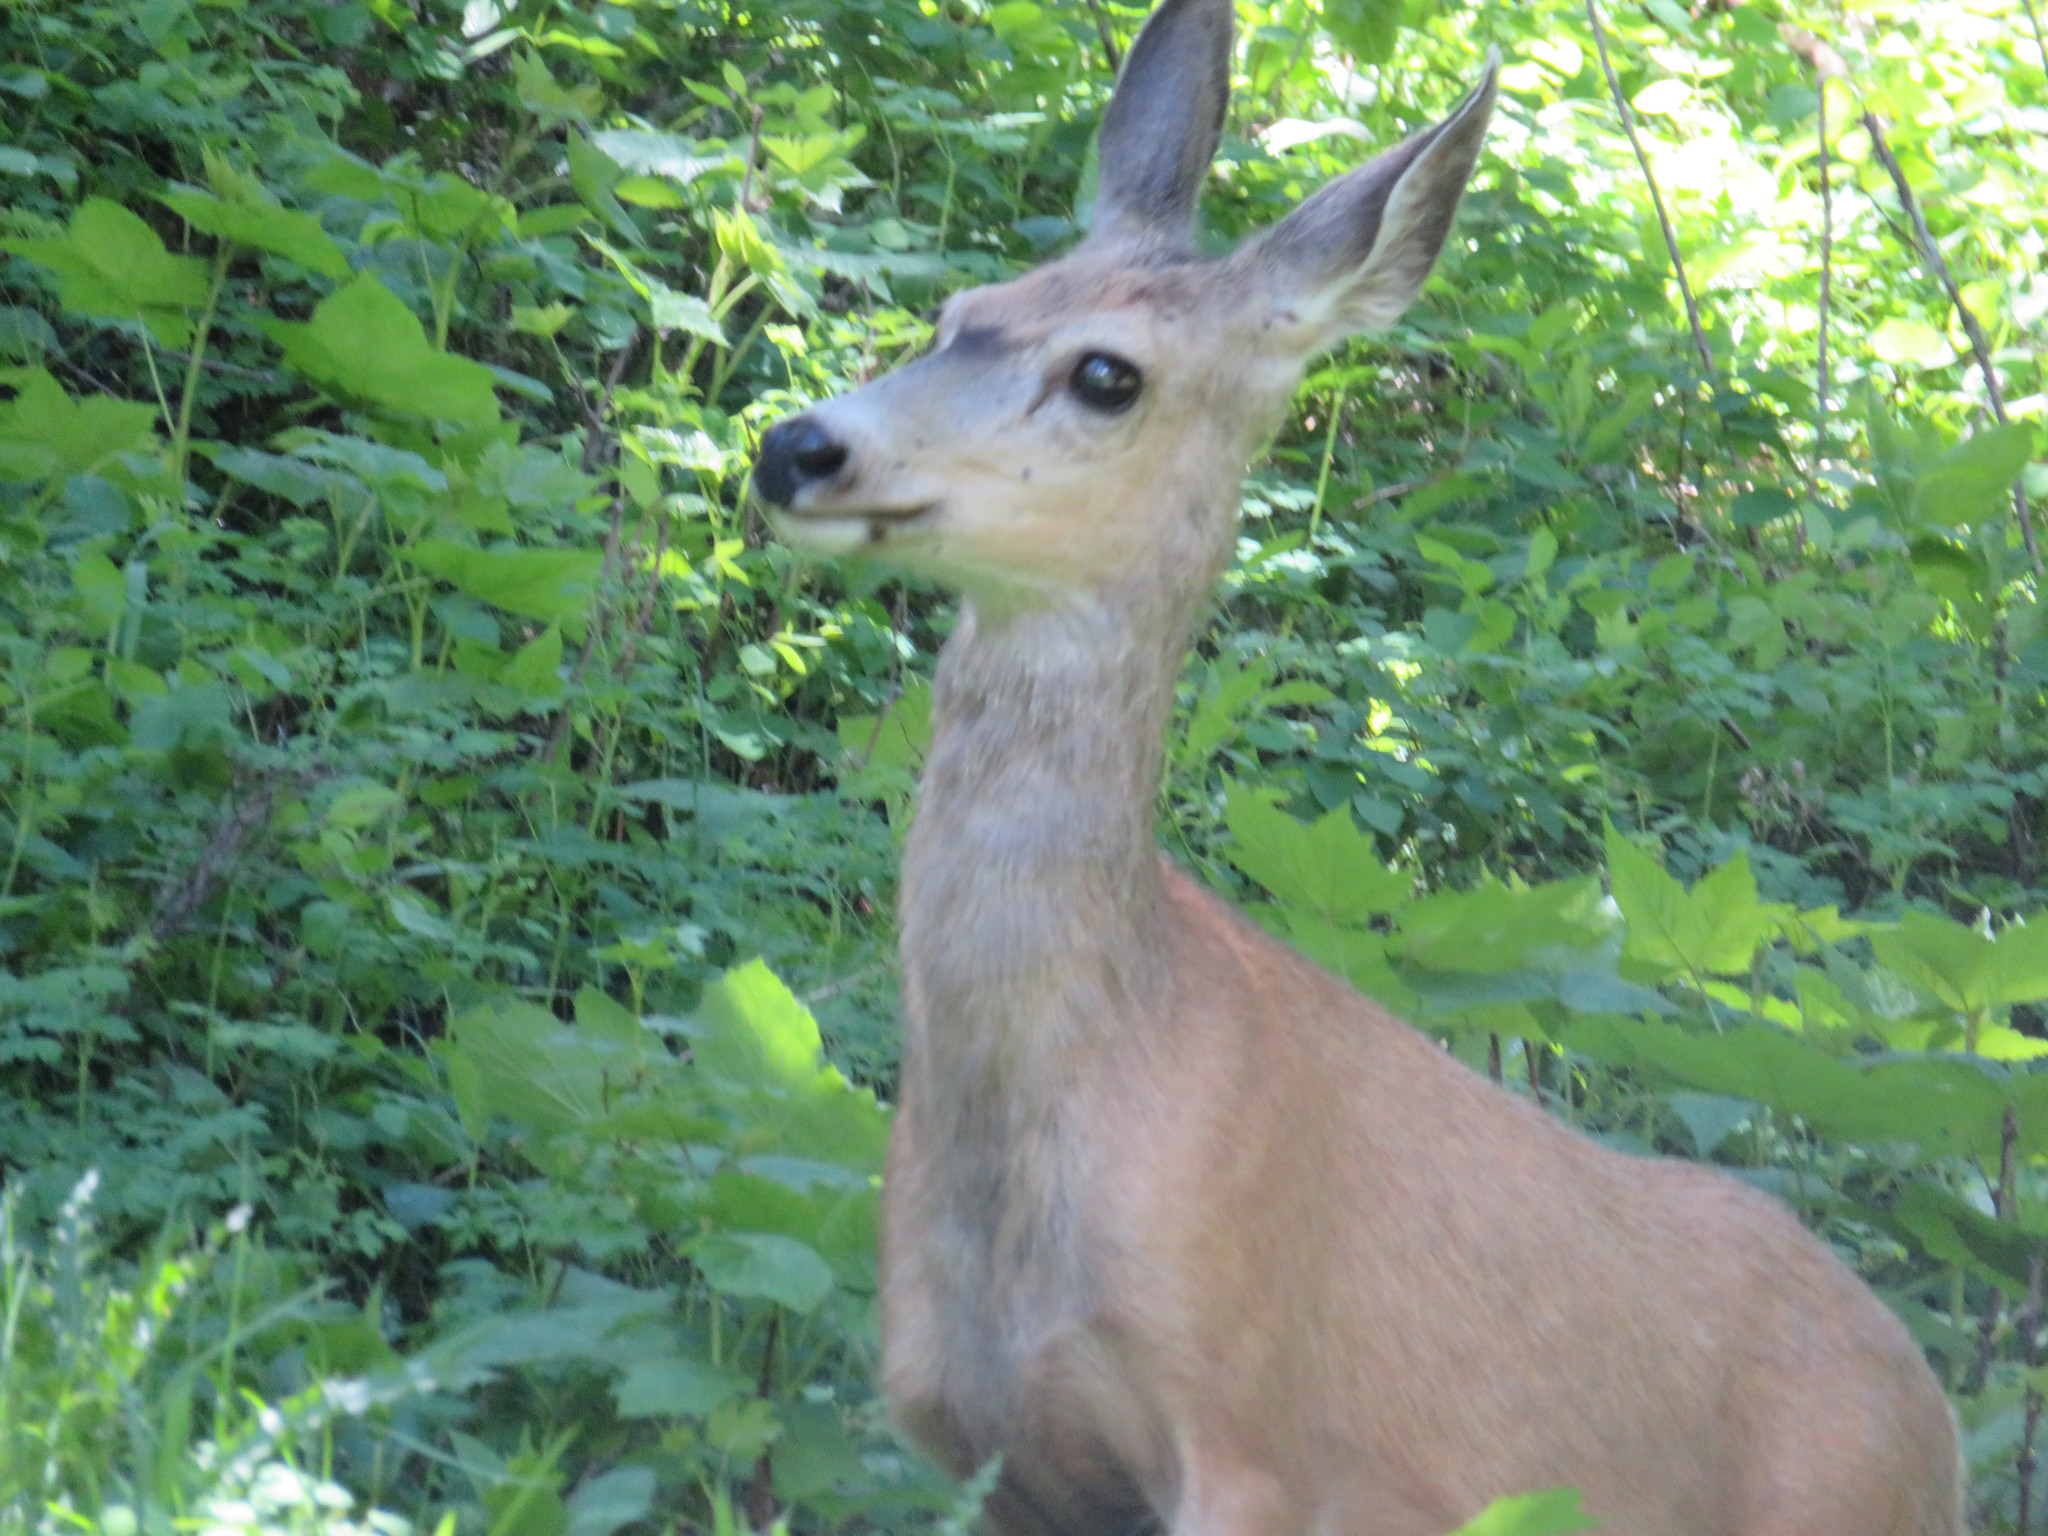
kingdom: Animalia
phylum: Chordata
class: Mammalia
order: Artiodactyla
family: Cervidae
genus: Odocoileus
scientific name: Odocoileus hemionus
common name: Mule deer
